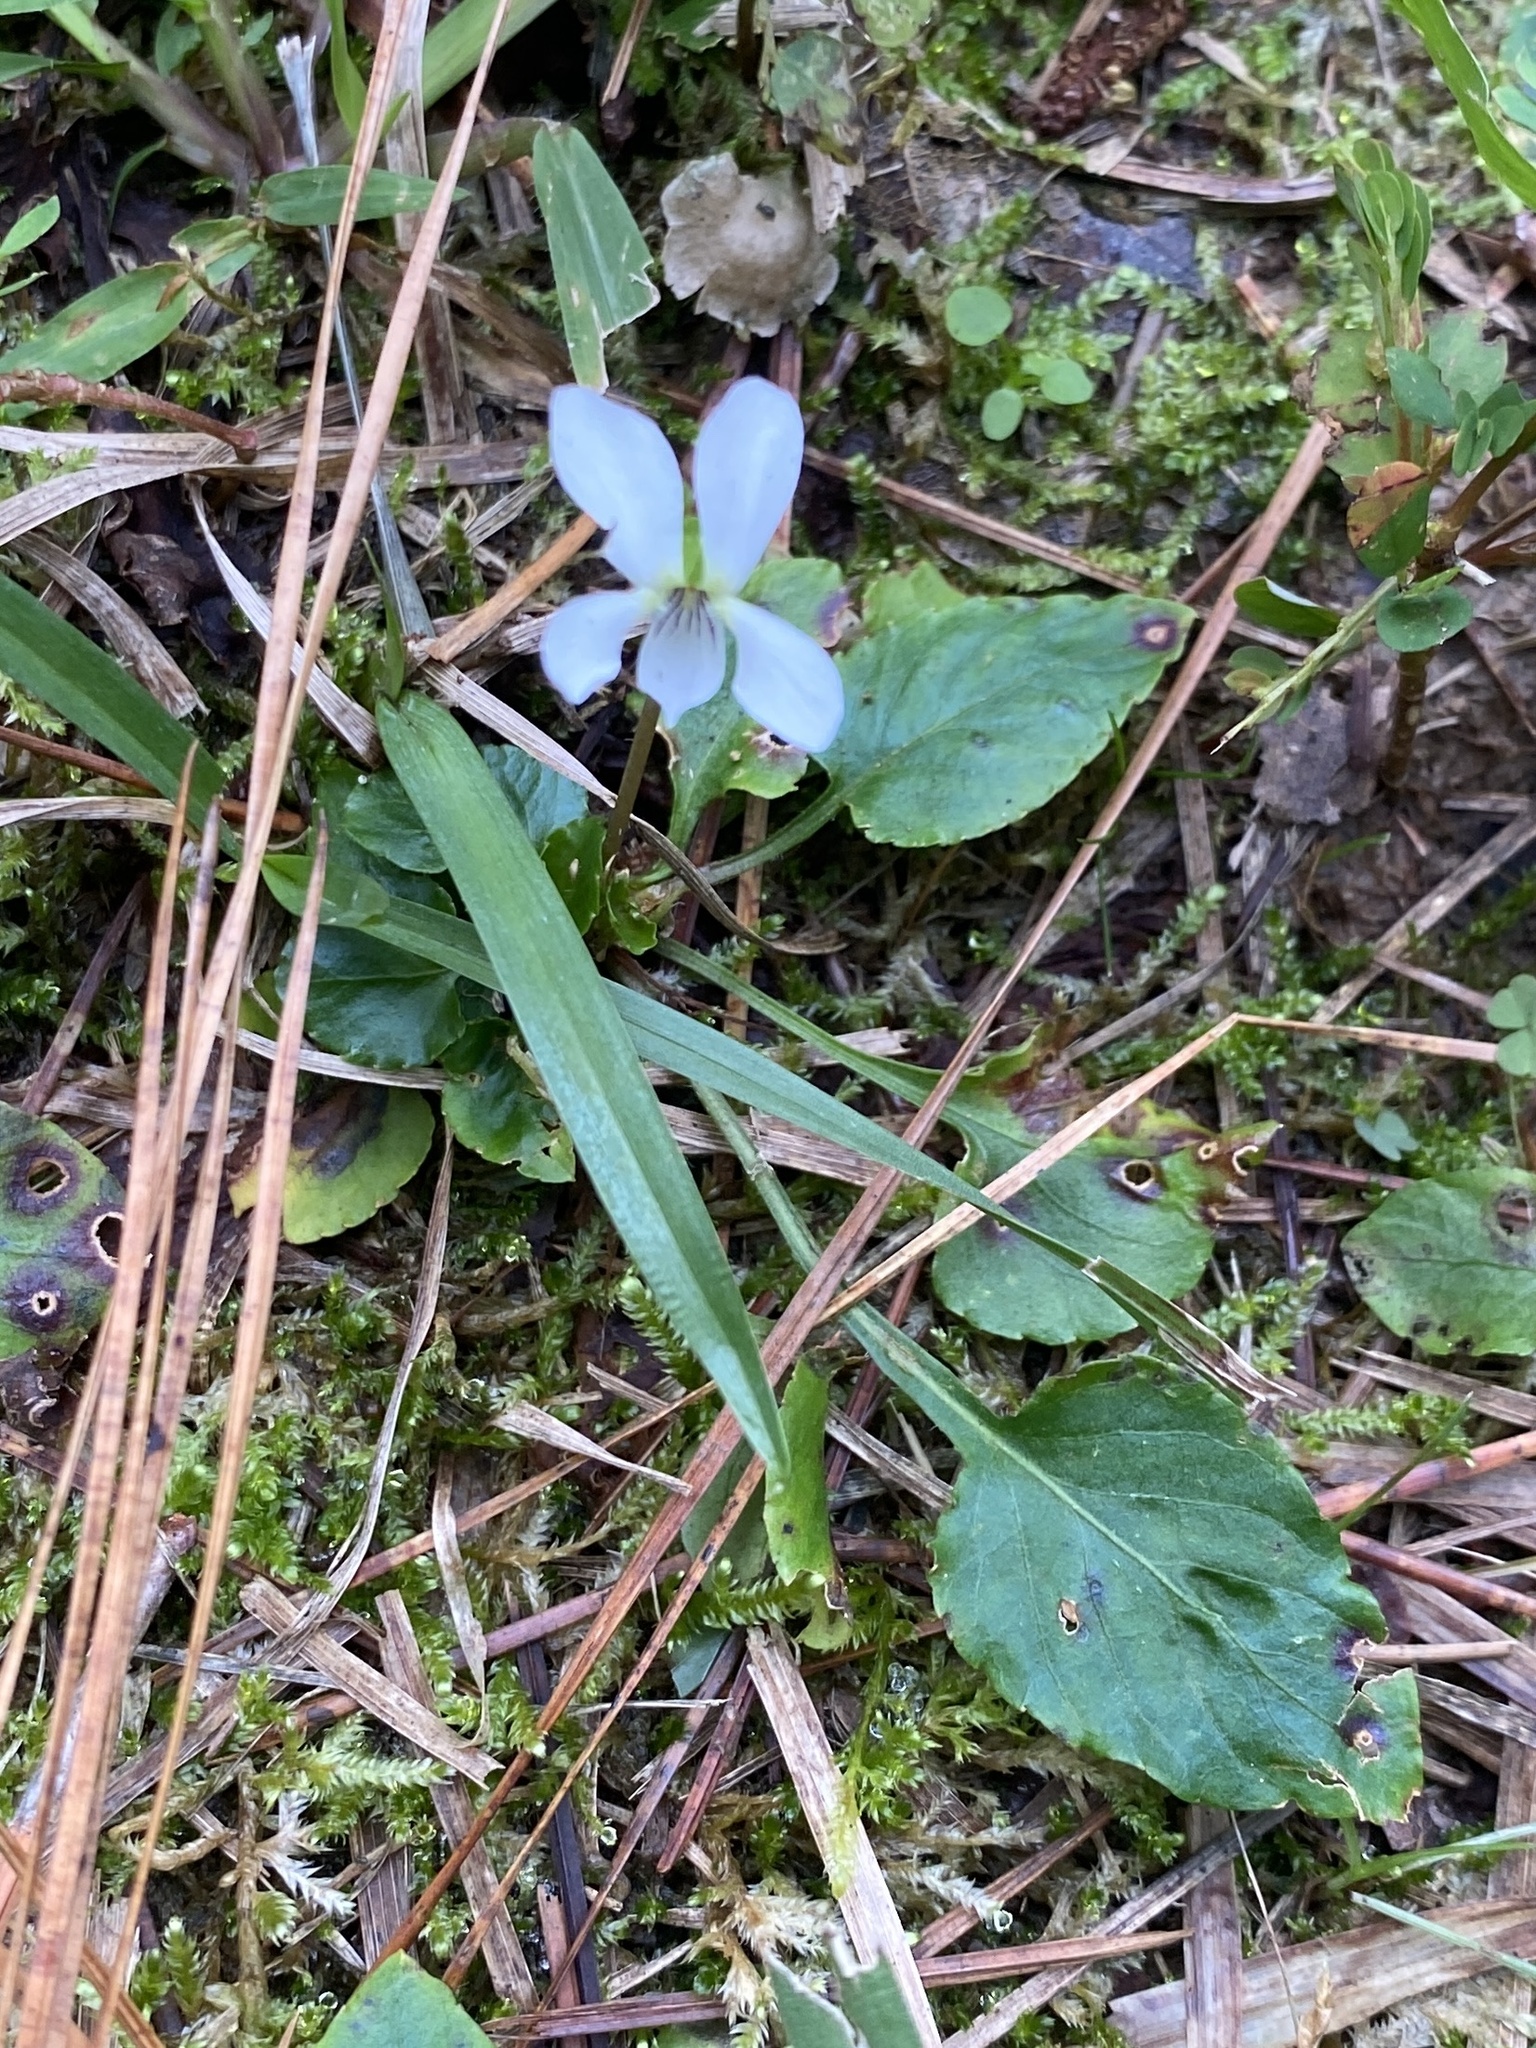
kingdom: Plantae
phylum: Tracheophyta
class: Magnoliopsida
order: Malpighiales
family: Violaceae
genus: Viola
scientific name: Viola primulifolia
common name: Primrose-leaf violet
